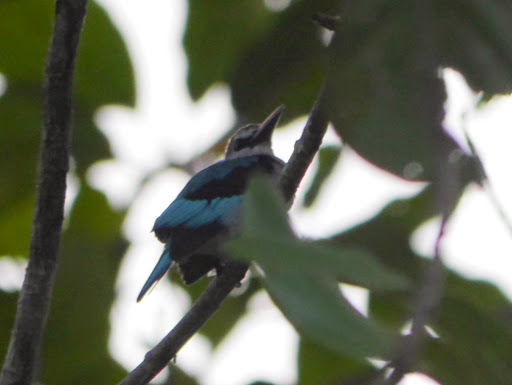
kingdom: Animalia
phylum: Chordata
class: Aves
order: Coraciiformes
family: Alcedinidae
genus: Halcyon
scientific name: Halcyon senegalensis
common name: Woodland kingfisher
